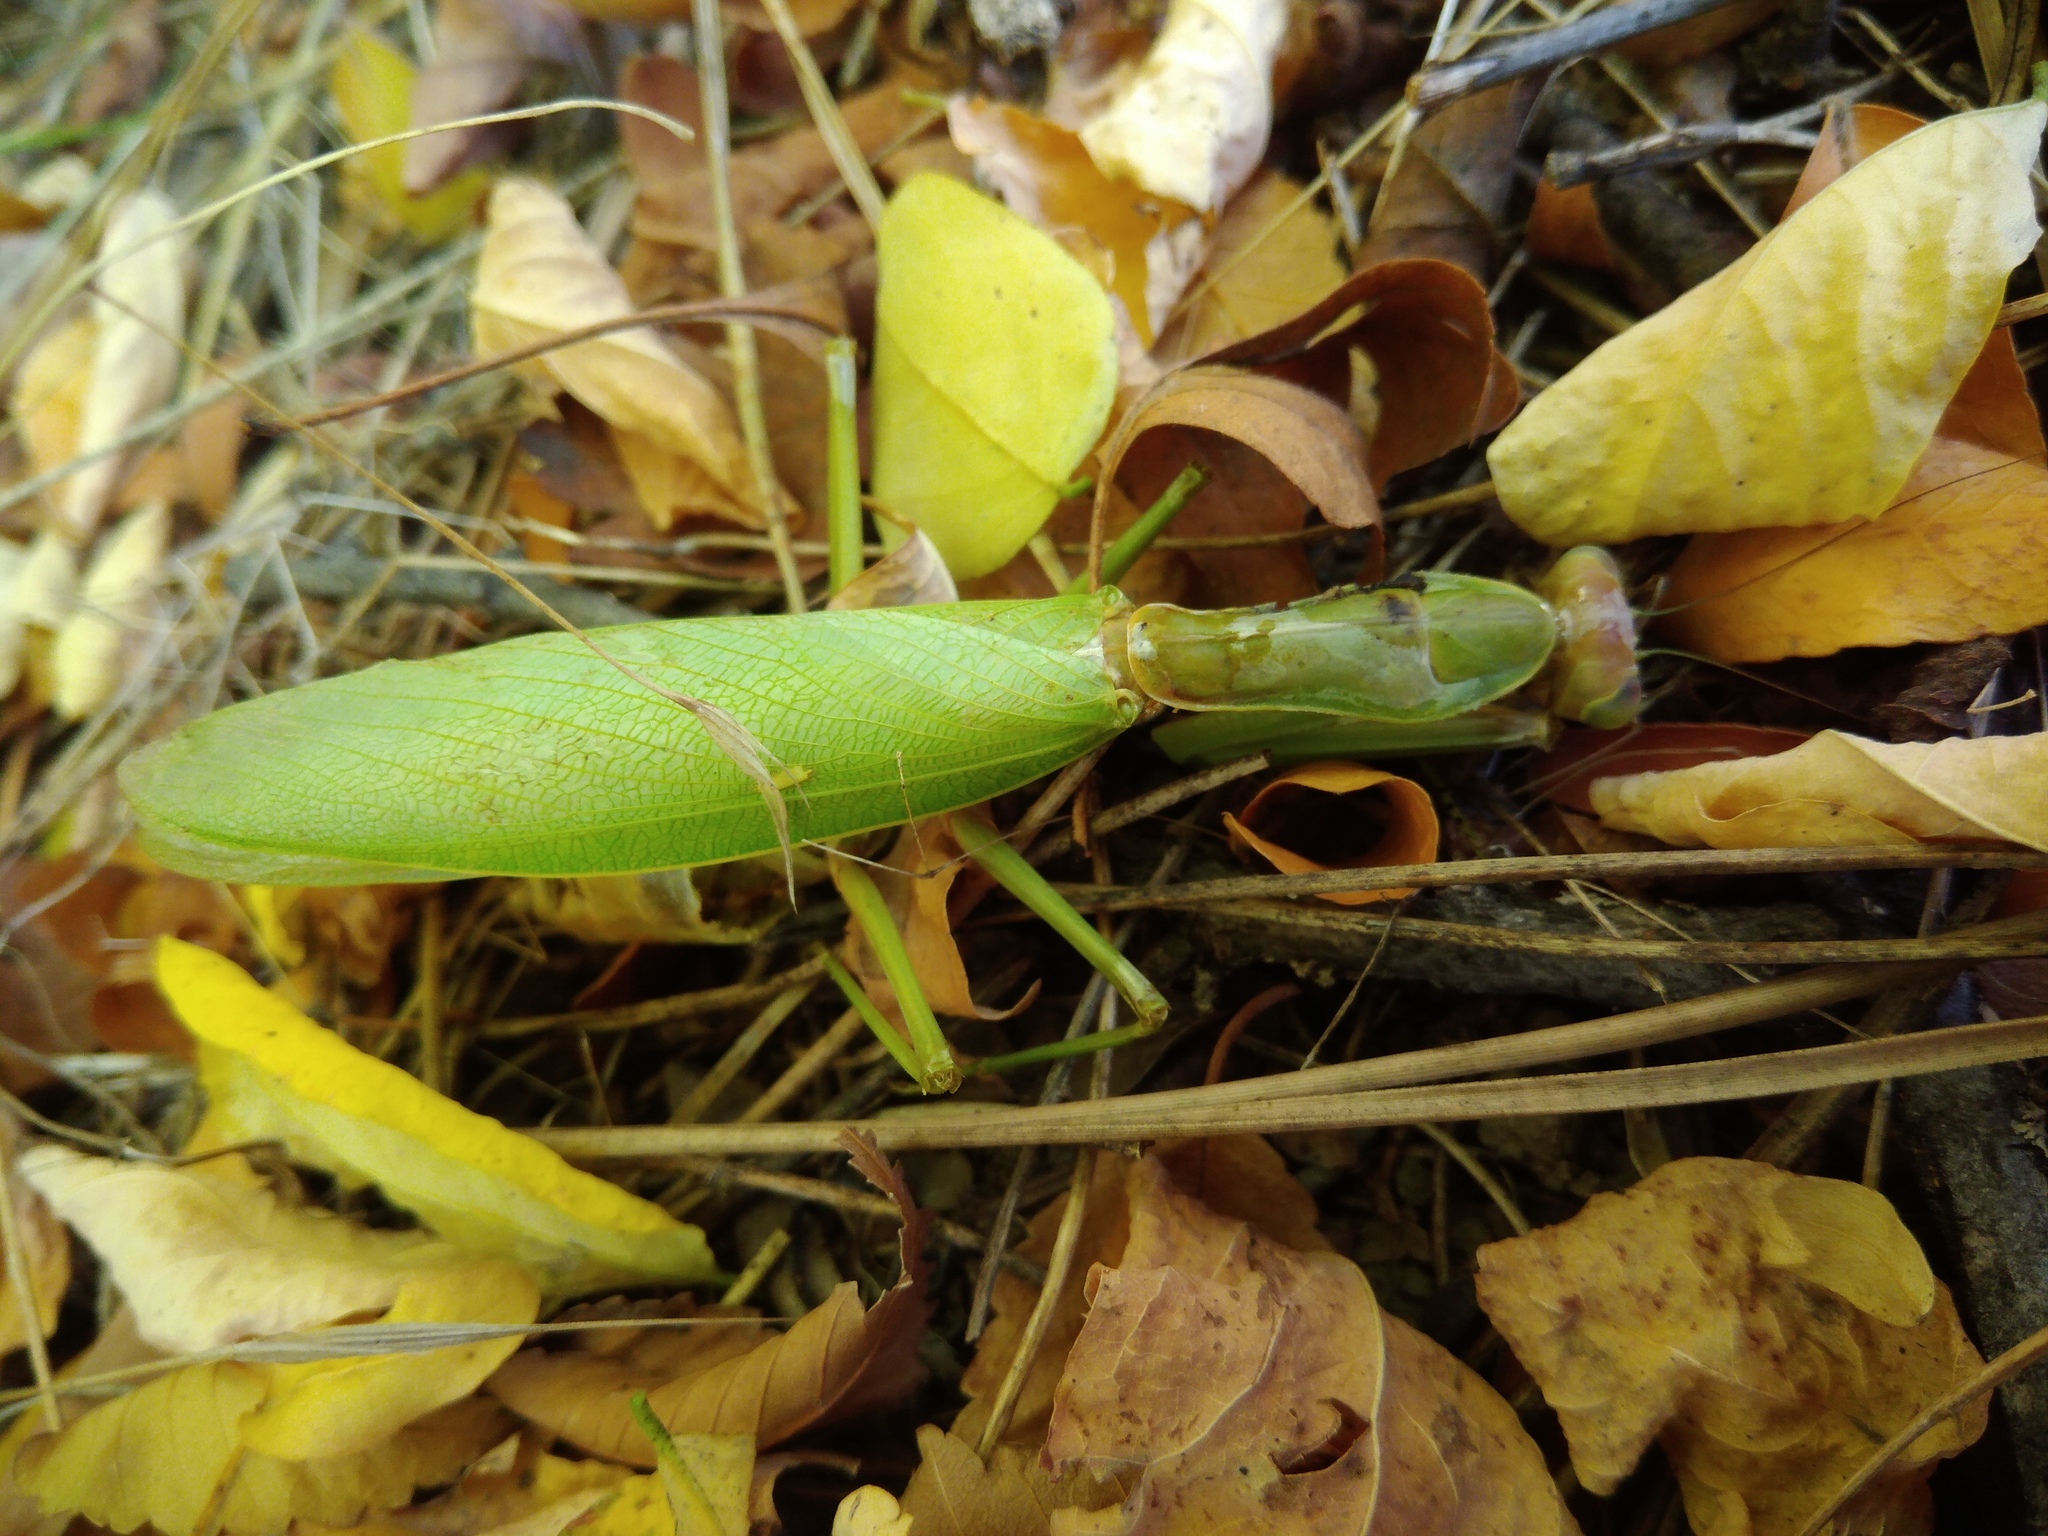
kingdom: Animalia
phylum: Arthropoda
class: Insecta
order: Mantodea
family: Mantidae
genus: Hierodula
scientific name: Hierodula transcaucasica
